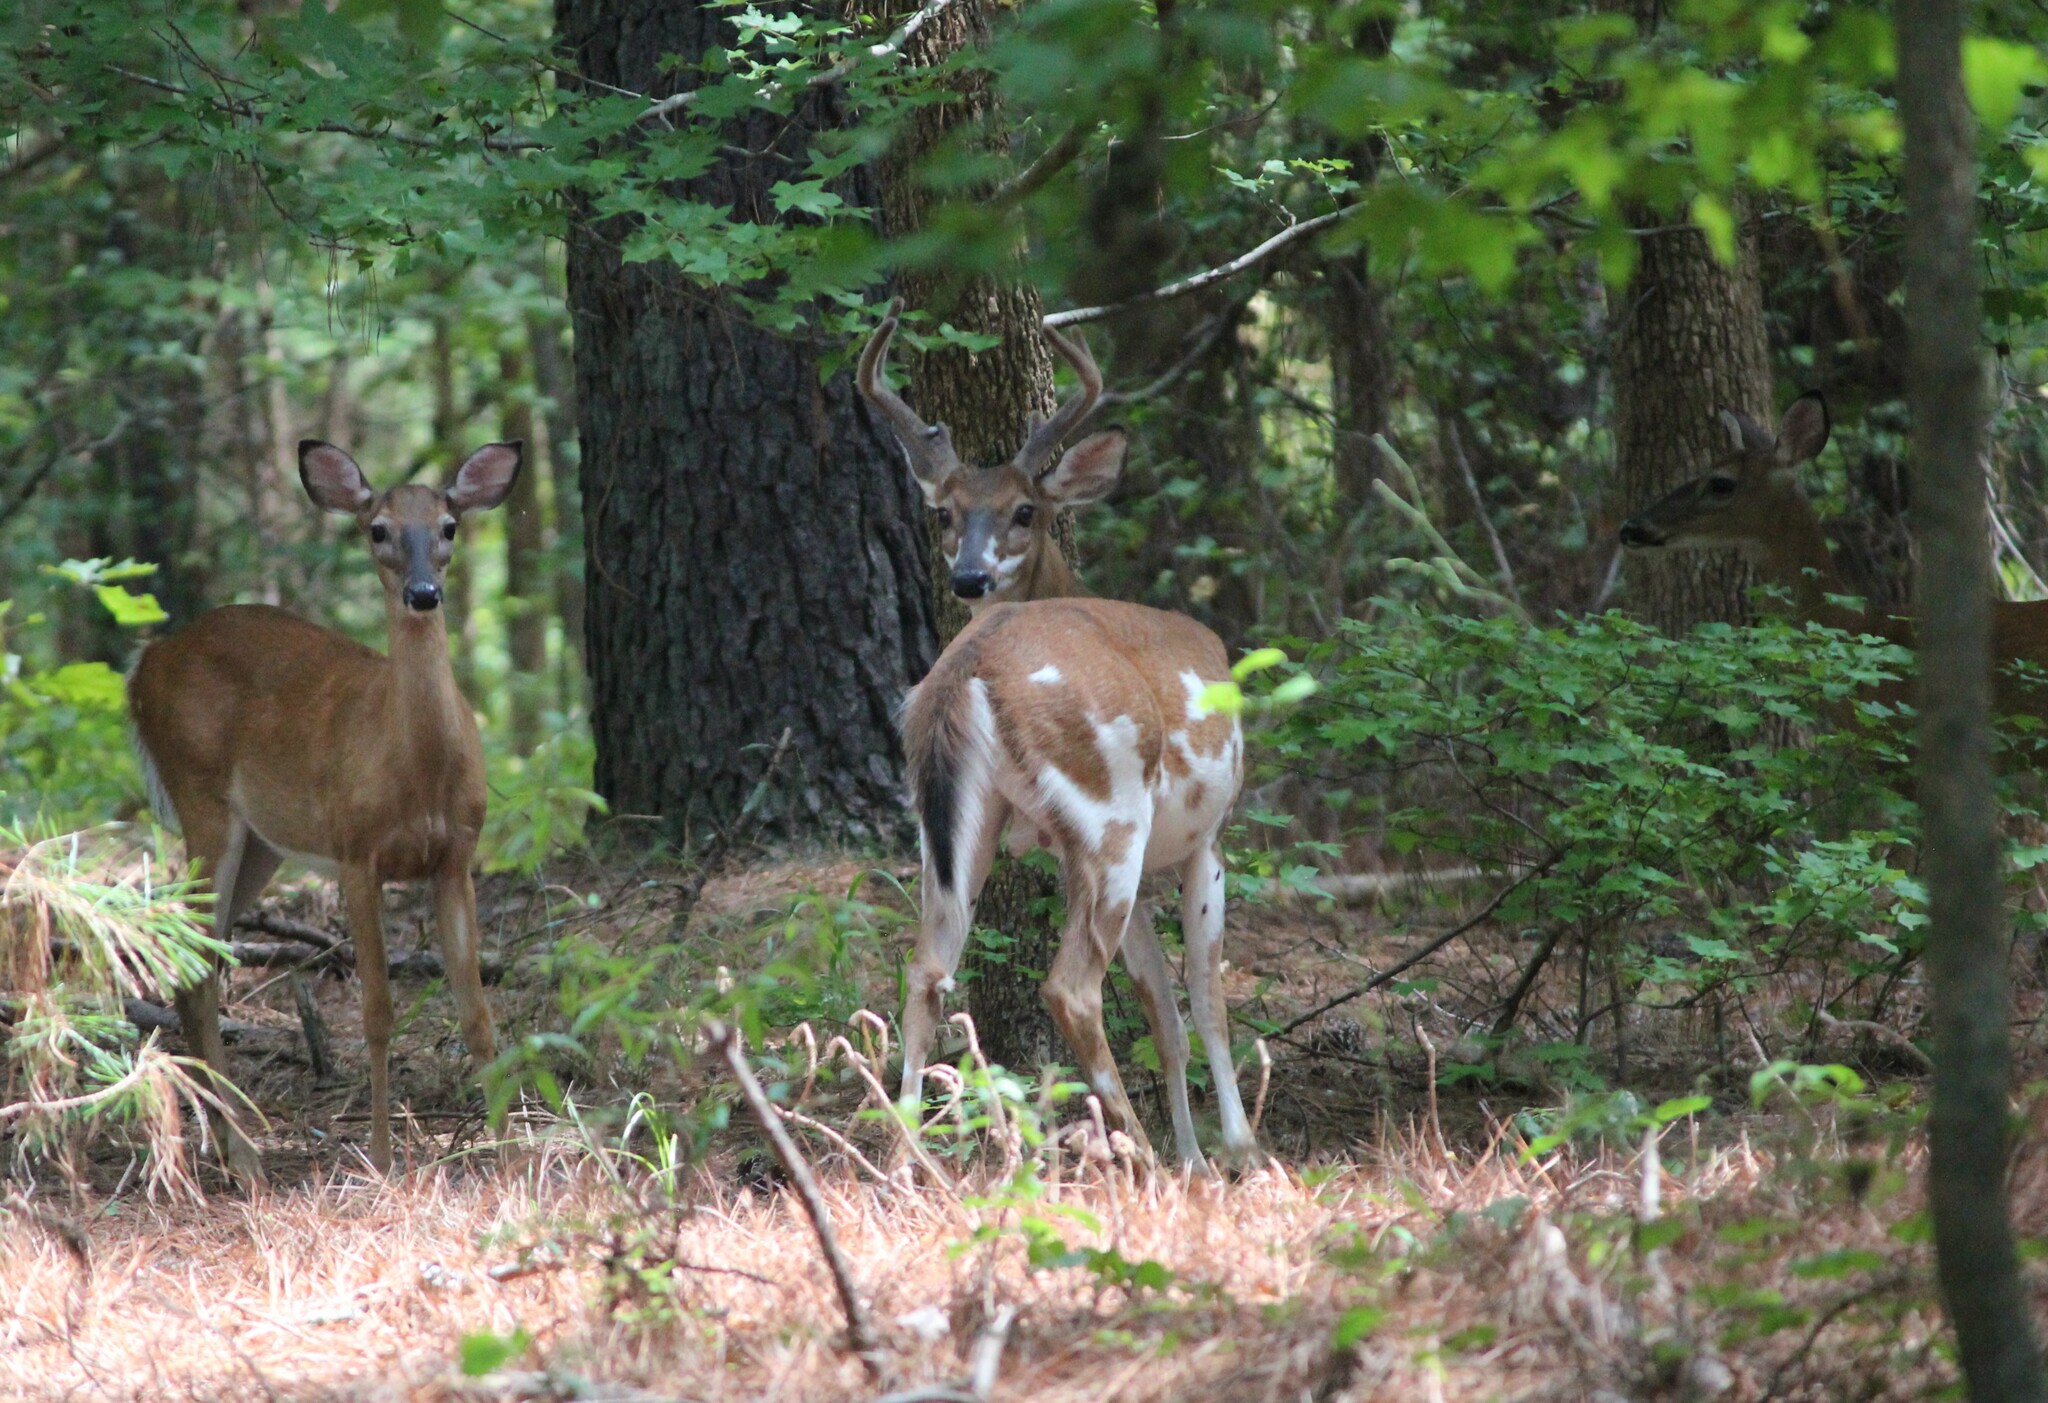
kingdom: Animalia
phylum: Chordata
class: Mammalia
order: Artiodactyla
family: Cervidae
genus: Odocoileus
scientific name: Odocoileus virginianus
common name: White-tailed deer
